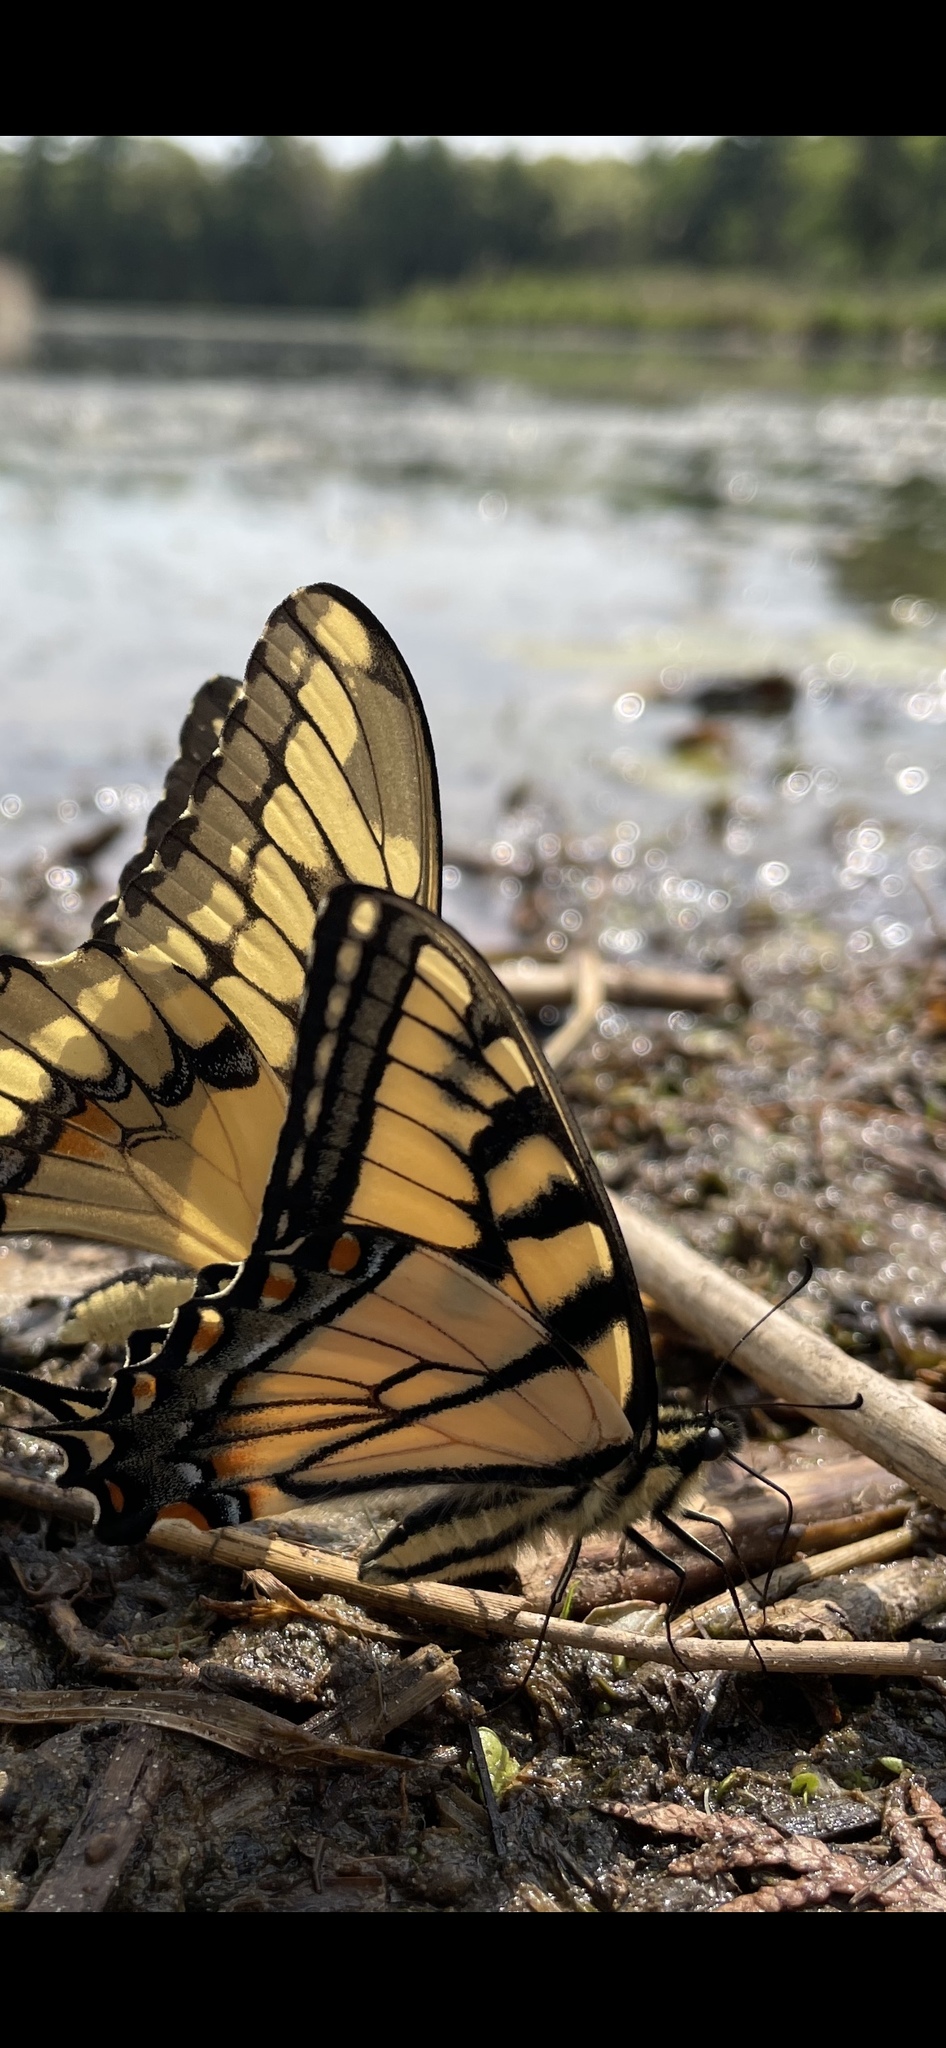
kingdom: Animalia
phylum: Arthropoda
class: Insecta
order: Lepidoptera
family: Papilionidae
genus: Papilio
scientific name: Papilio canadensis
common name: Canadian tiger swallowtail
